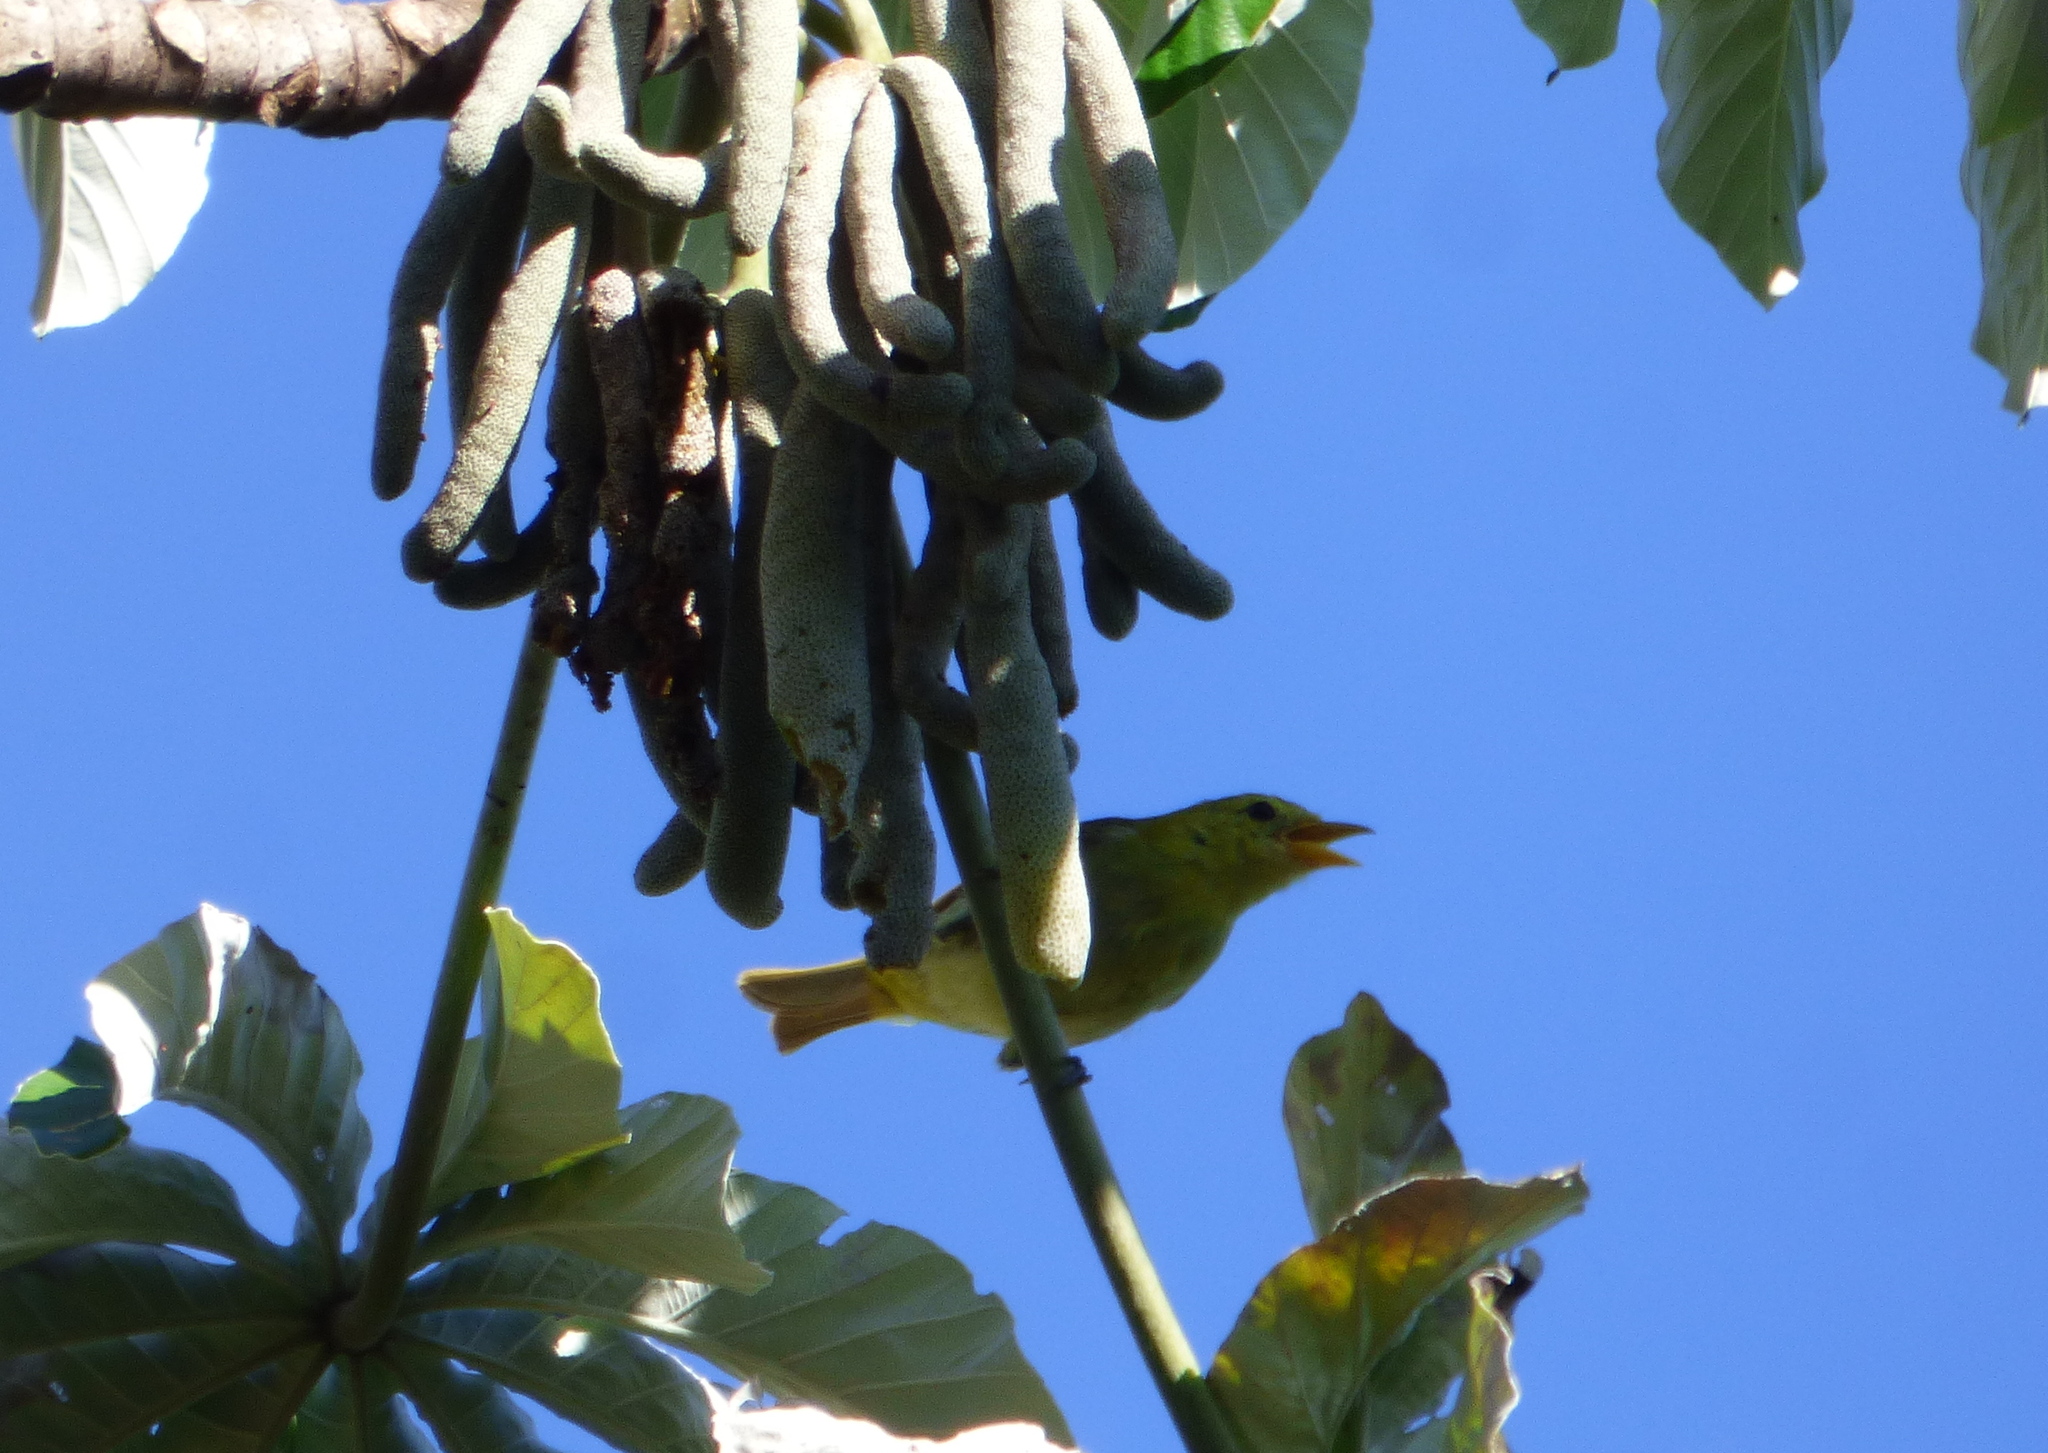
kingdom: Animalia
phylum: Chordata
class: Aves
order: Passeriformes
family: Thraupidae
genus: Hemithraupis
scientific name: Hemithraupis guira
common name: Guira tanager
